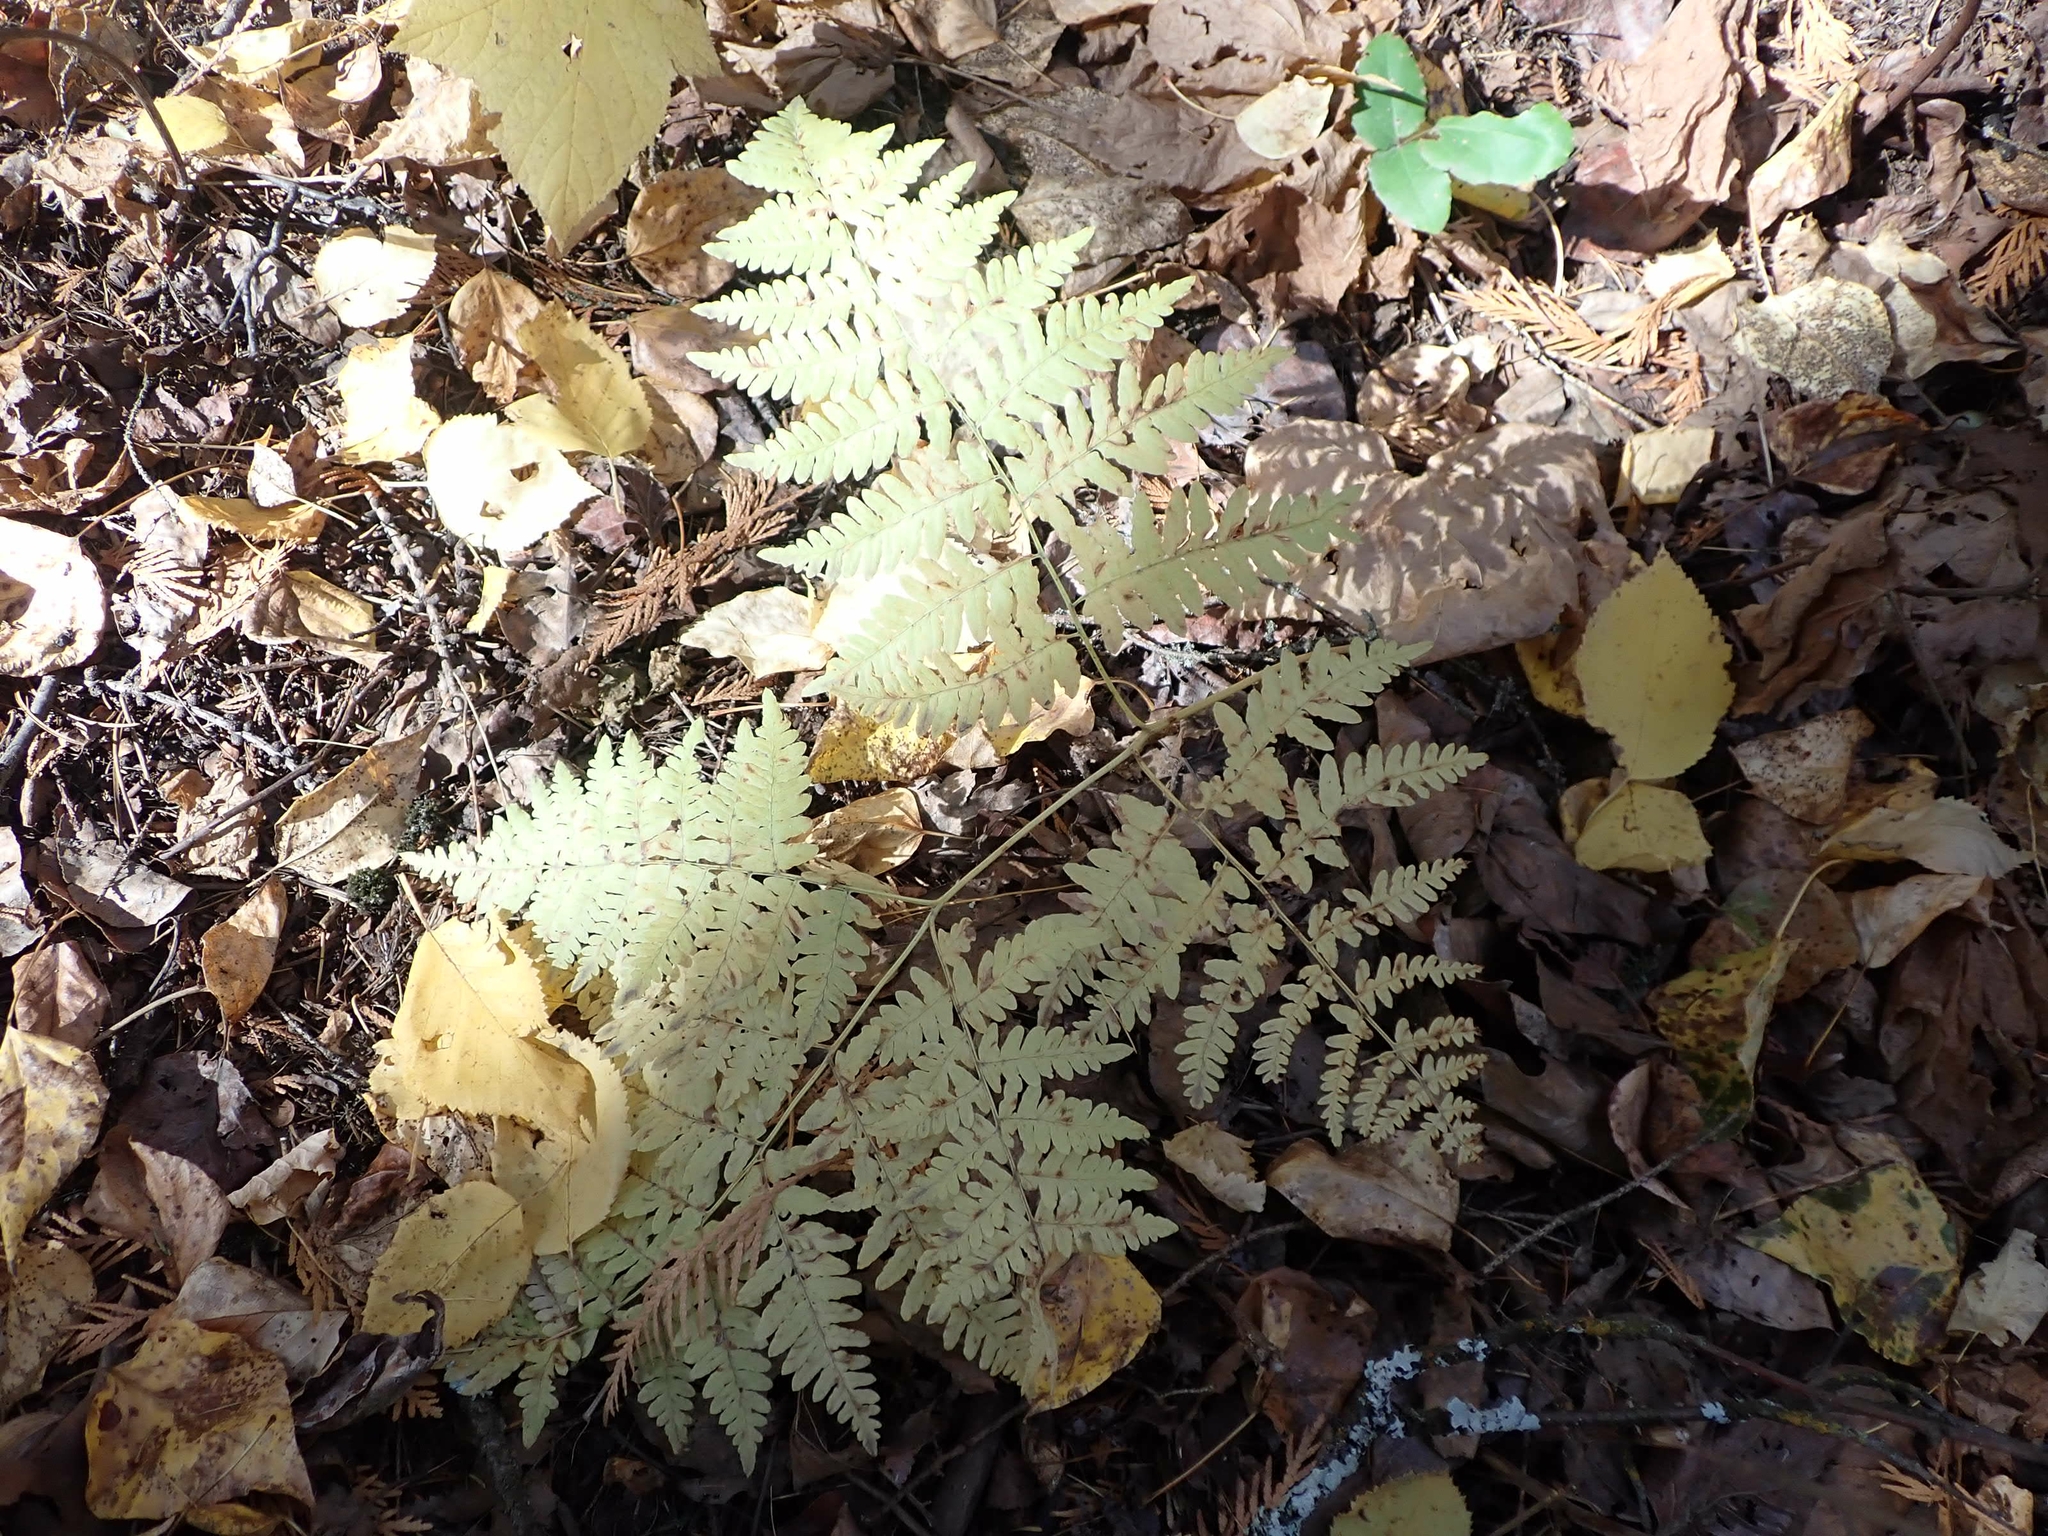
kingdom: Plantae
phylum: Tracheophyta
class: Polypodiopsida
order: Polypodiales
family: Dennstaedtiaceae
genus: Pteridium
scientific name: Pteridium aquilinum
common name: Bracken
